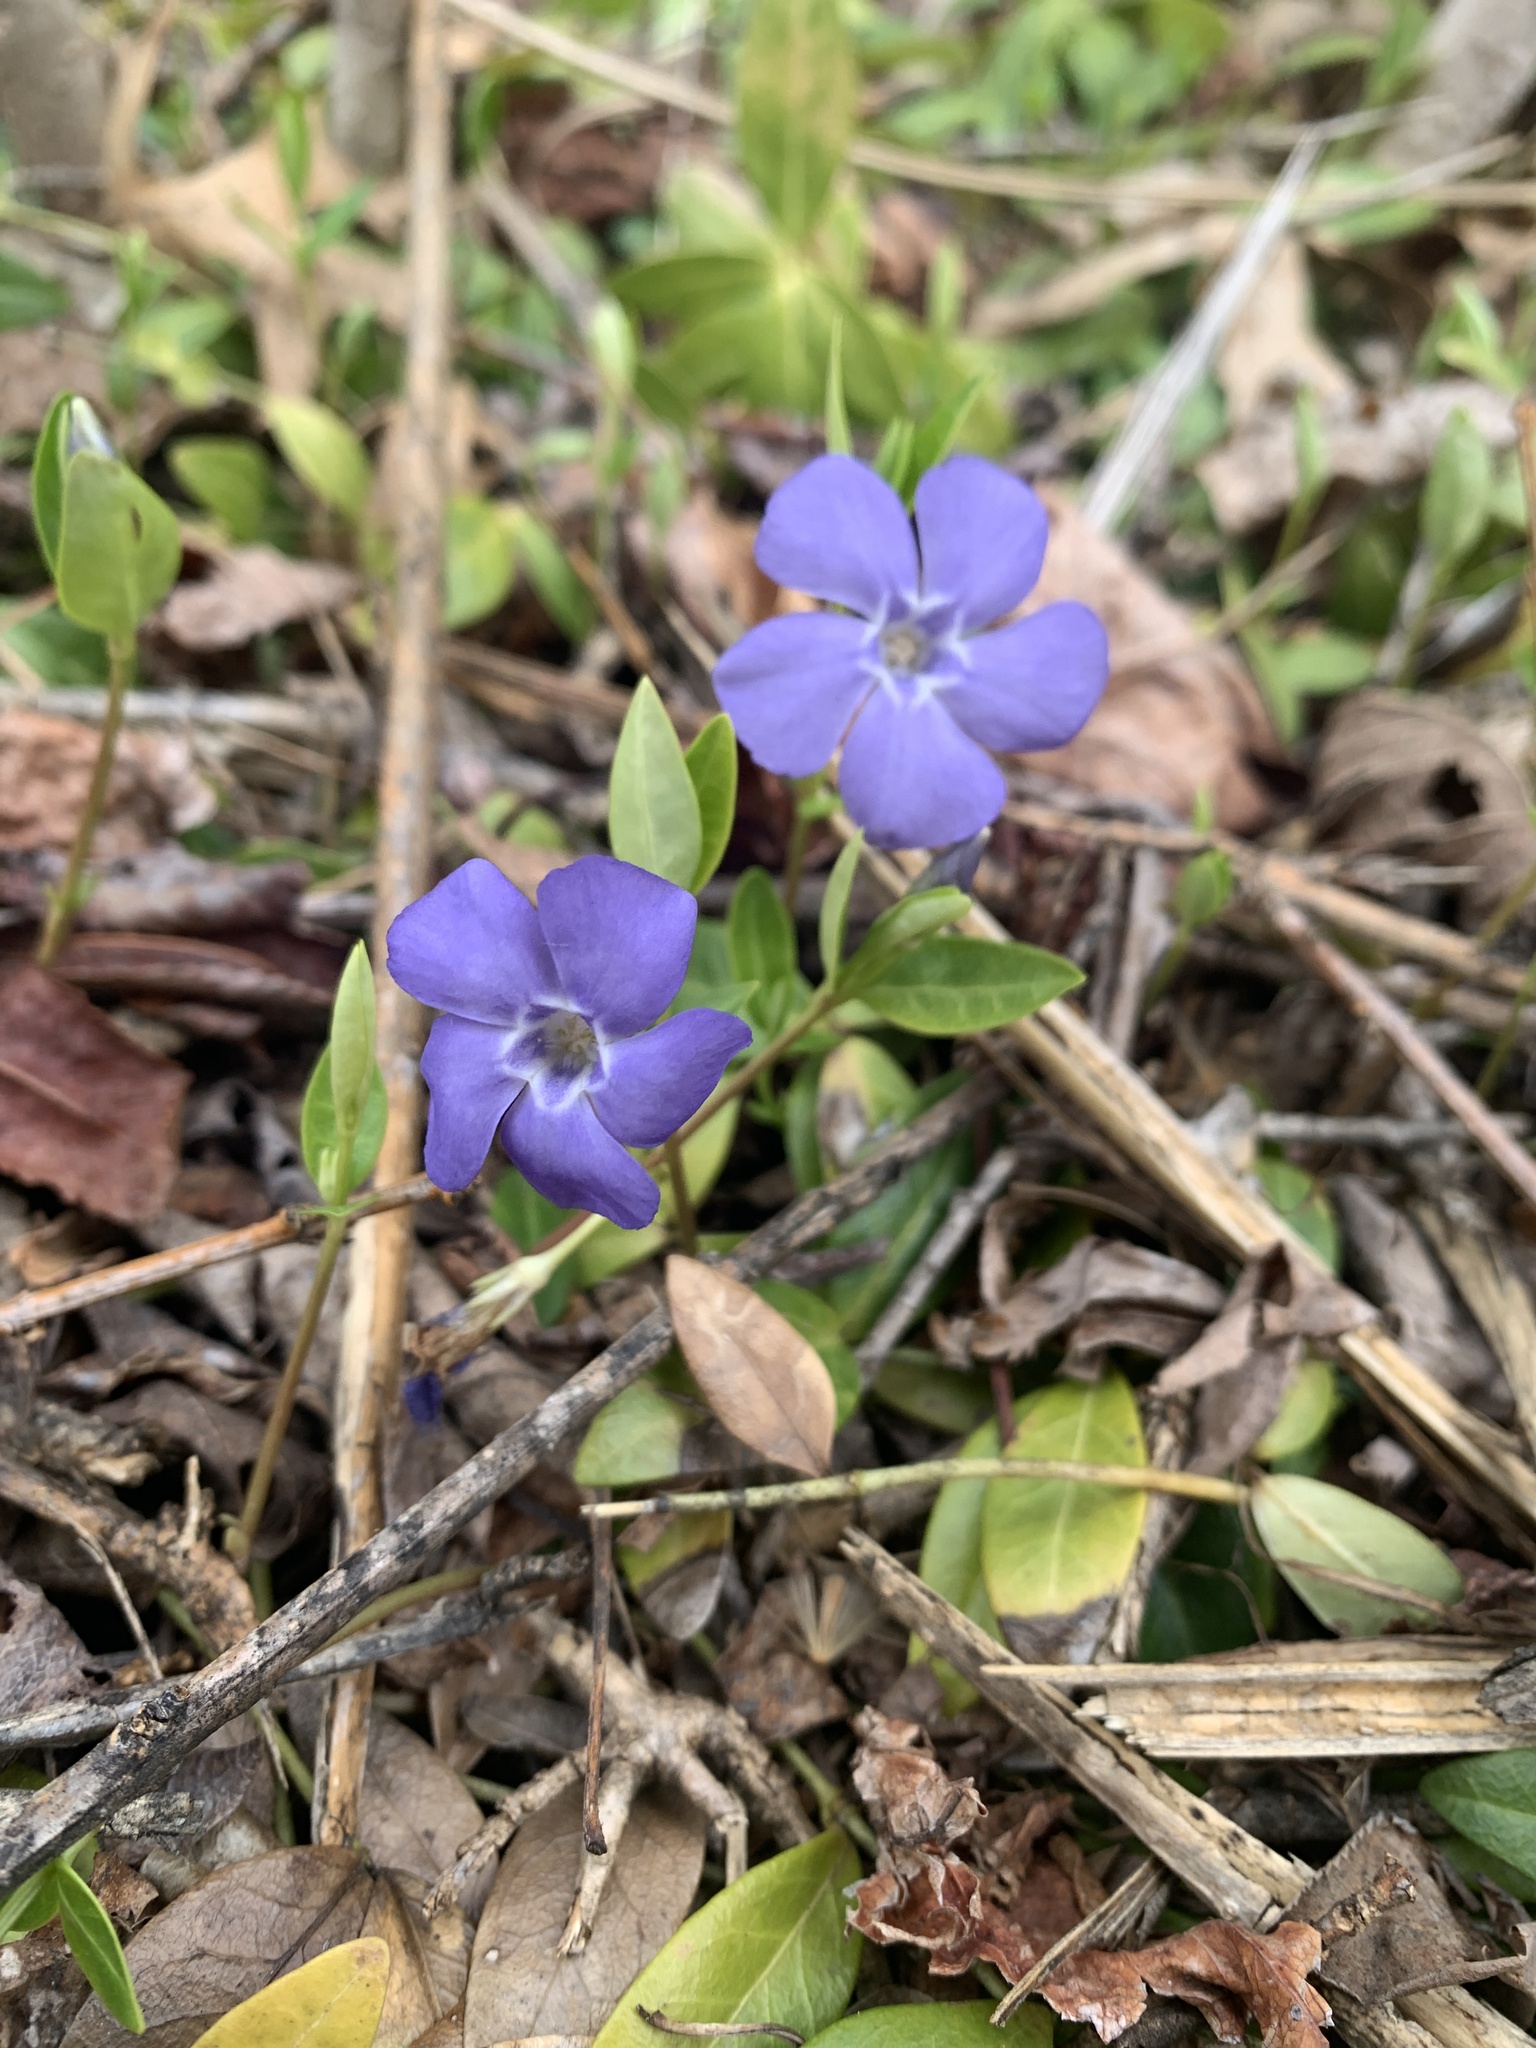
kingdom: Plantae
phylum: Tracheophyta
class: Magnoliopsida
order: Gentianales
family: Apocynaceae
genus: Vinca
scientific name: Vinca minor
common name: Lesser periwinkle
